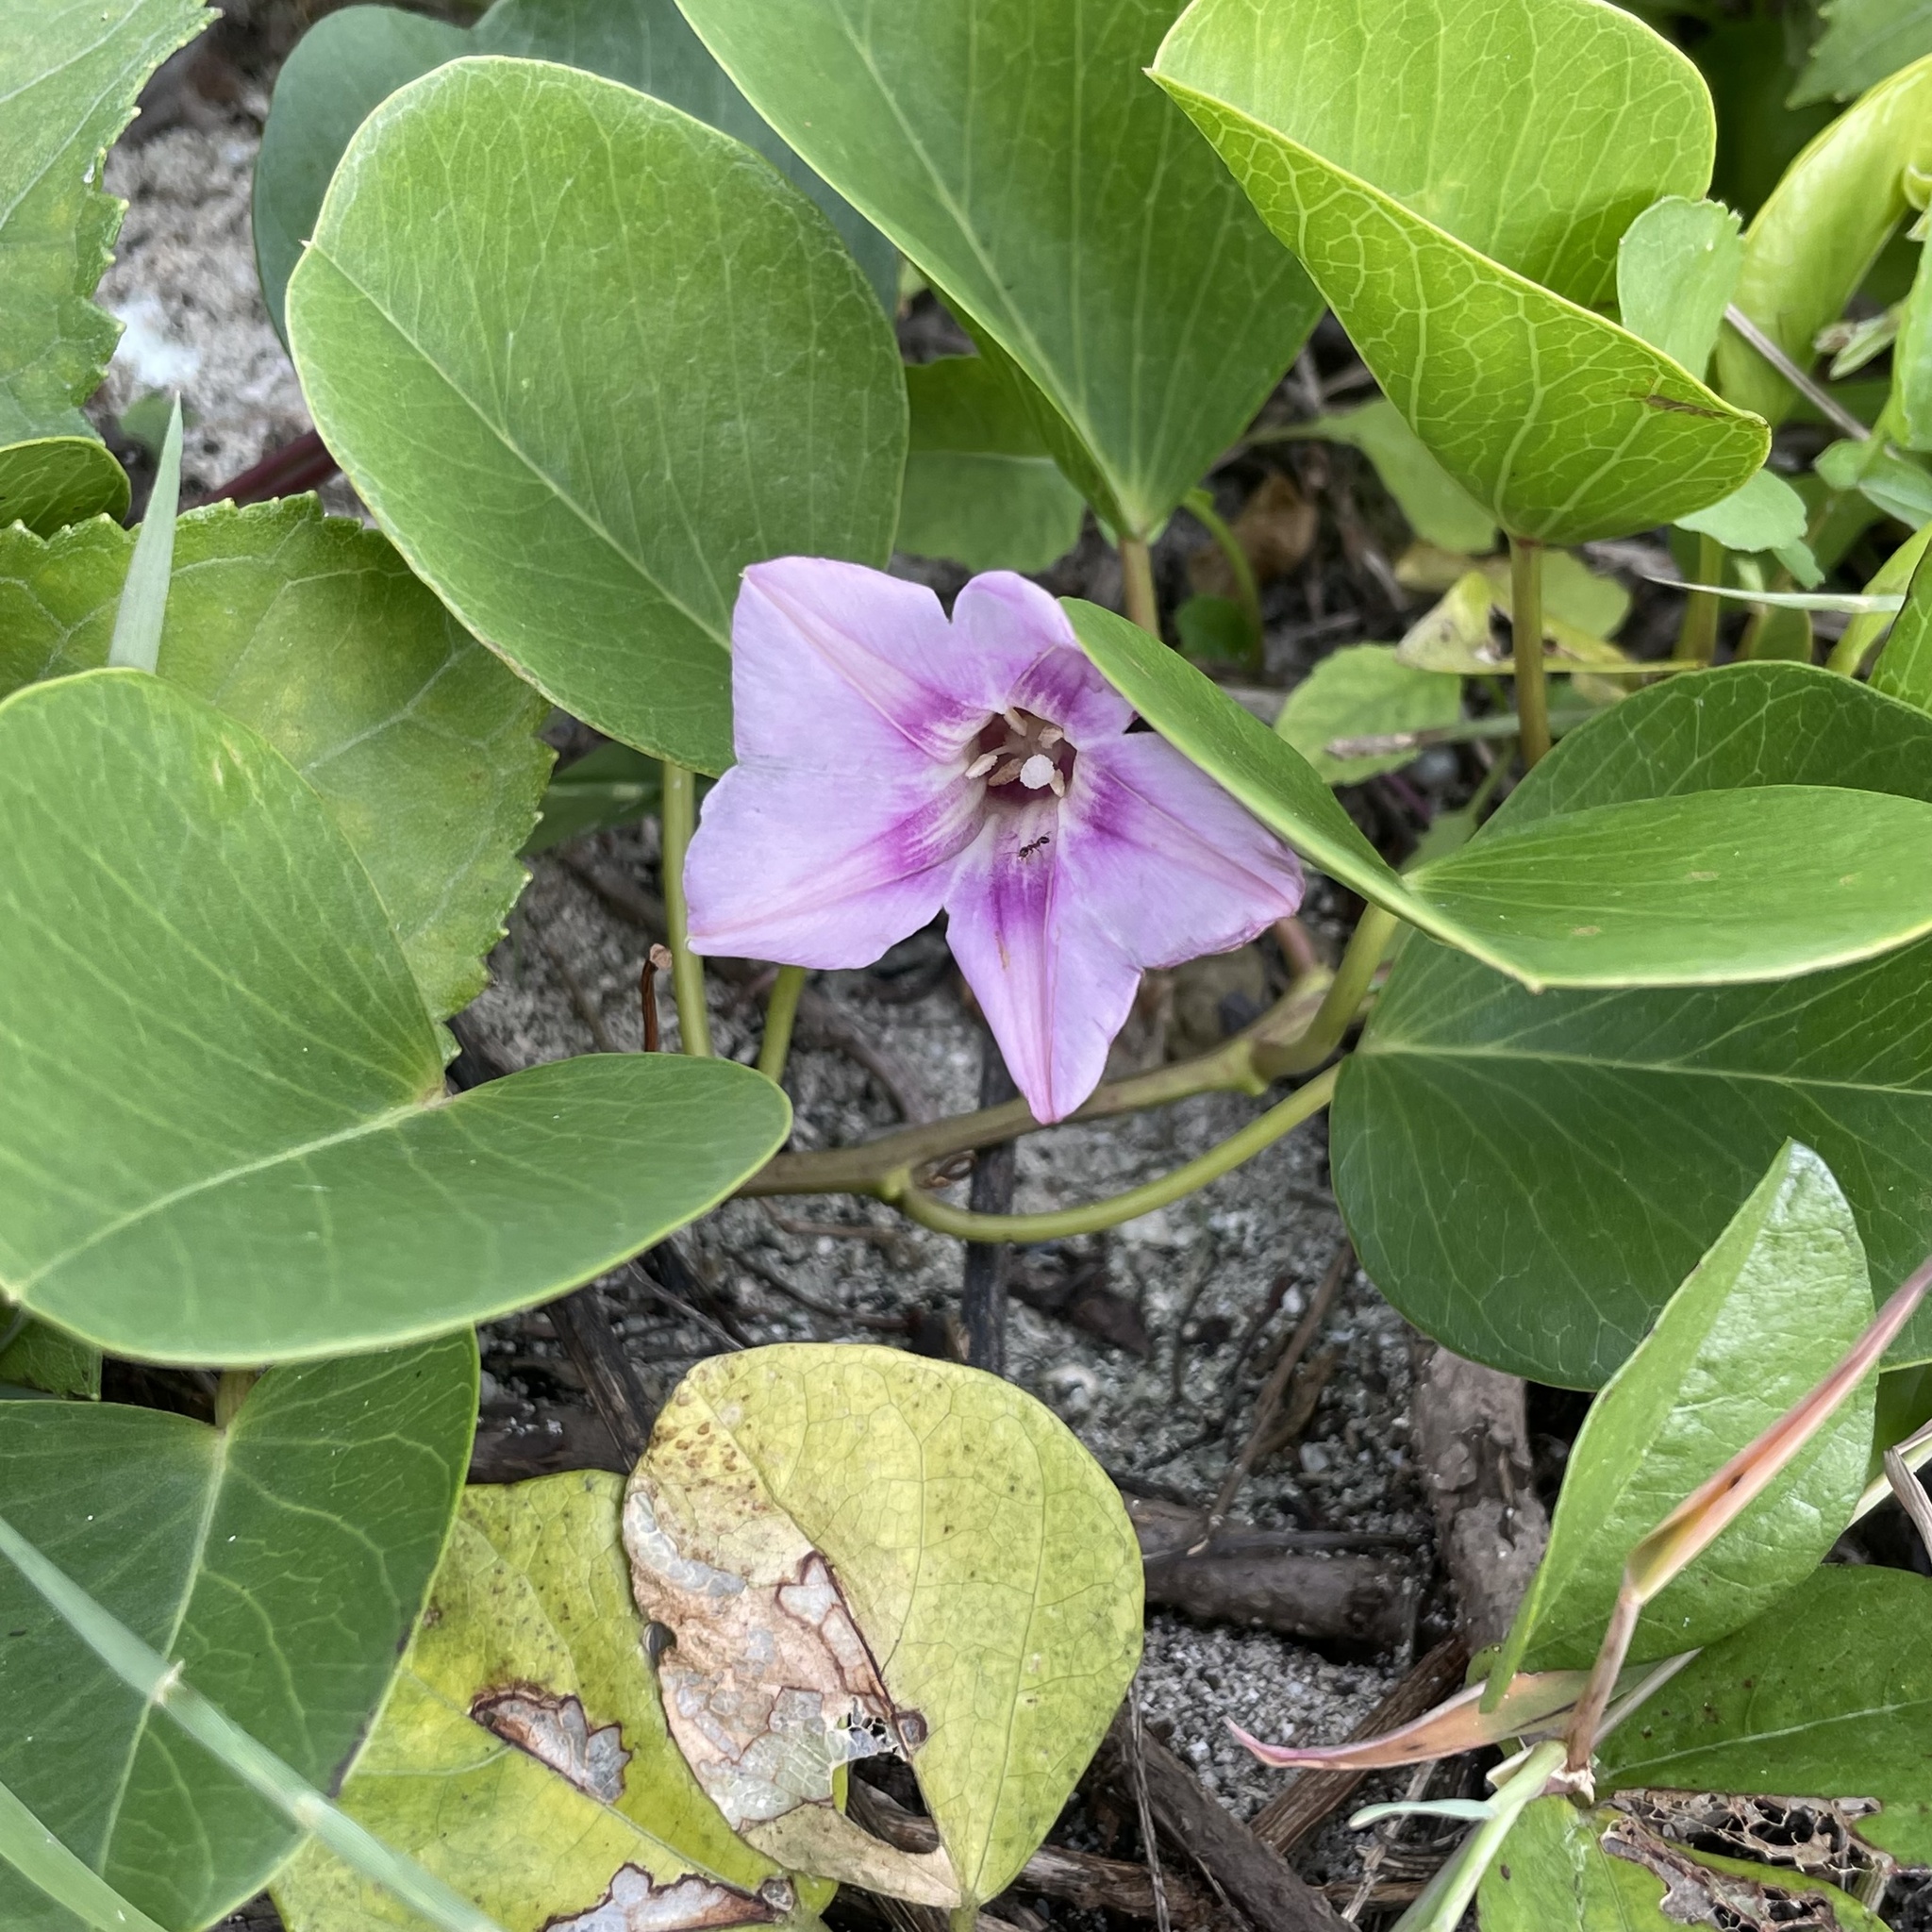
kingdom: Plantae
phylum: Tracheophyta
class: Magnoliopsida
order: Solanales
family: Convolvulaceae
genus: Ipomoea
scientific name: Ipomoea pes-caprae
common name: Beach morning glory
